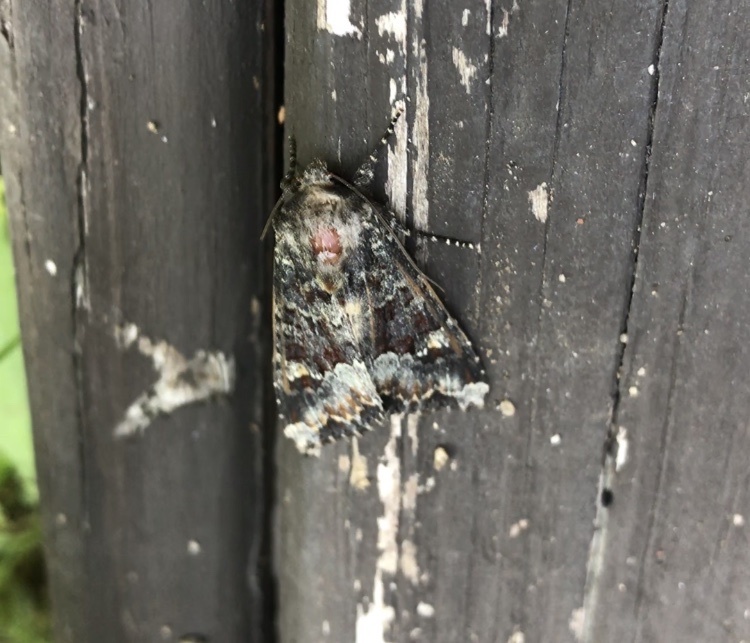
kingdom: Animalia
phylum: Arthropoda
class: Insecta
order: Lepidoptera
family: Noctuidae
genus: Apamea
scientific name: Apamea amputatrix
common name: Yellow-headed cutworm moth
